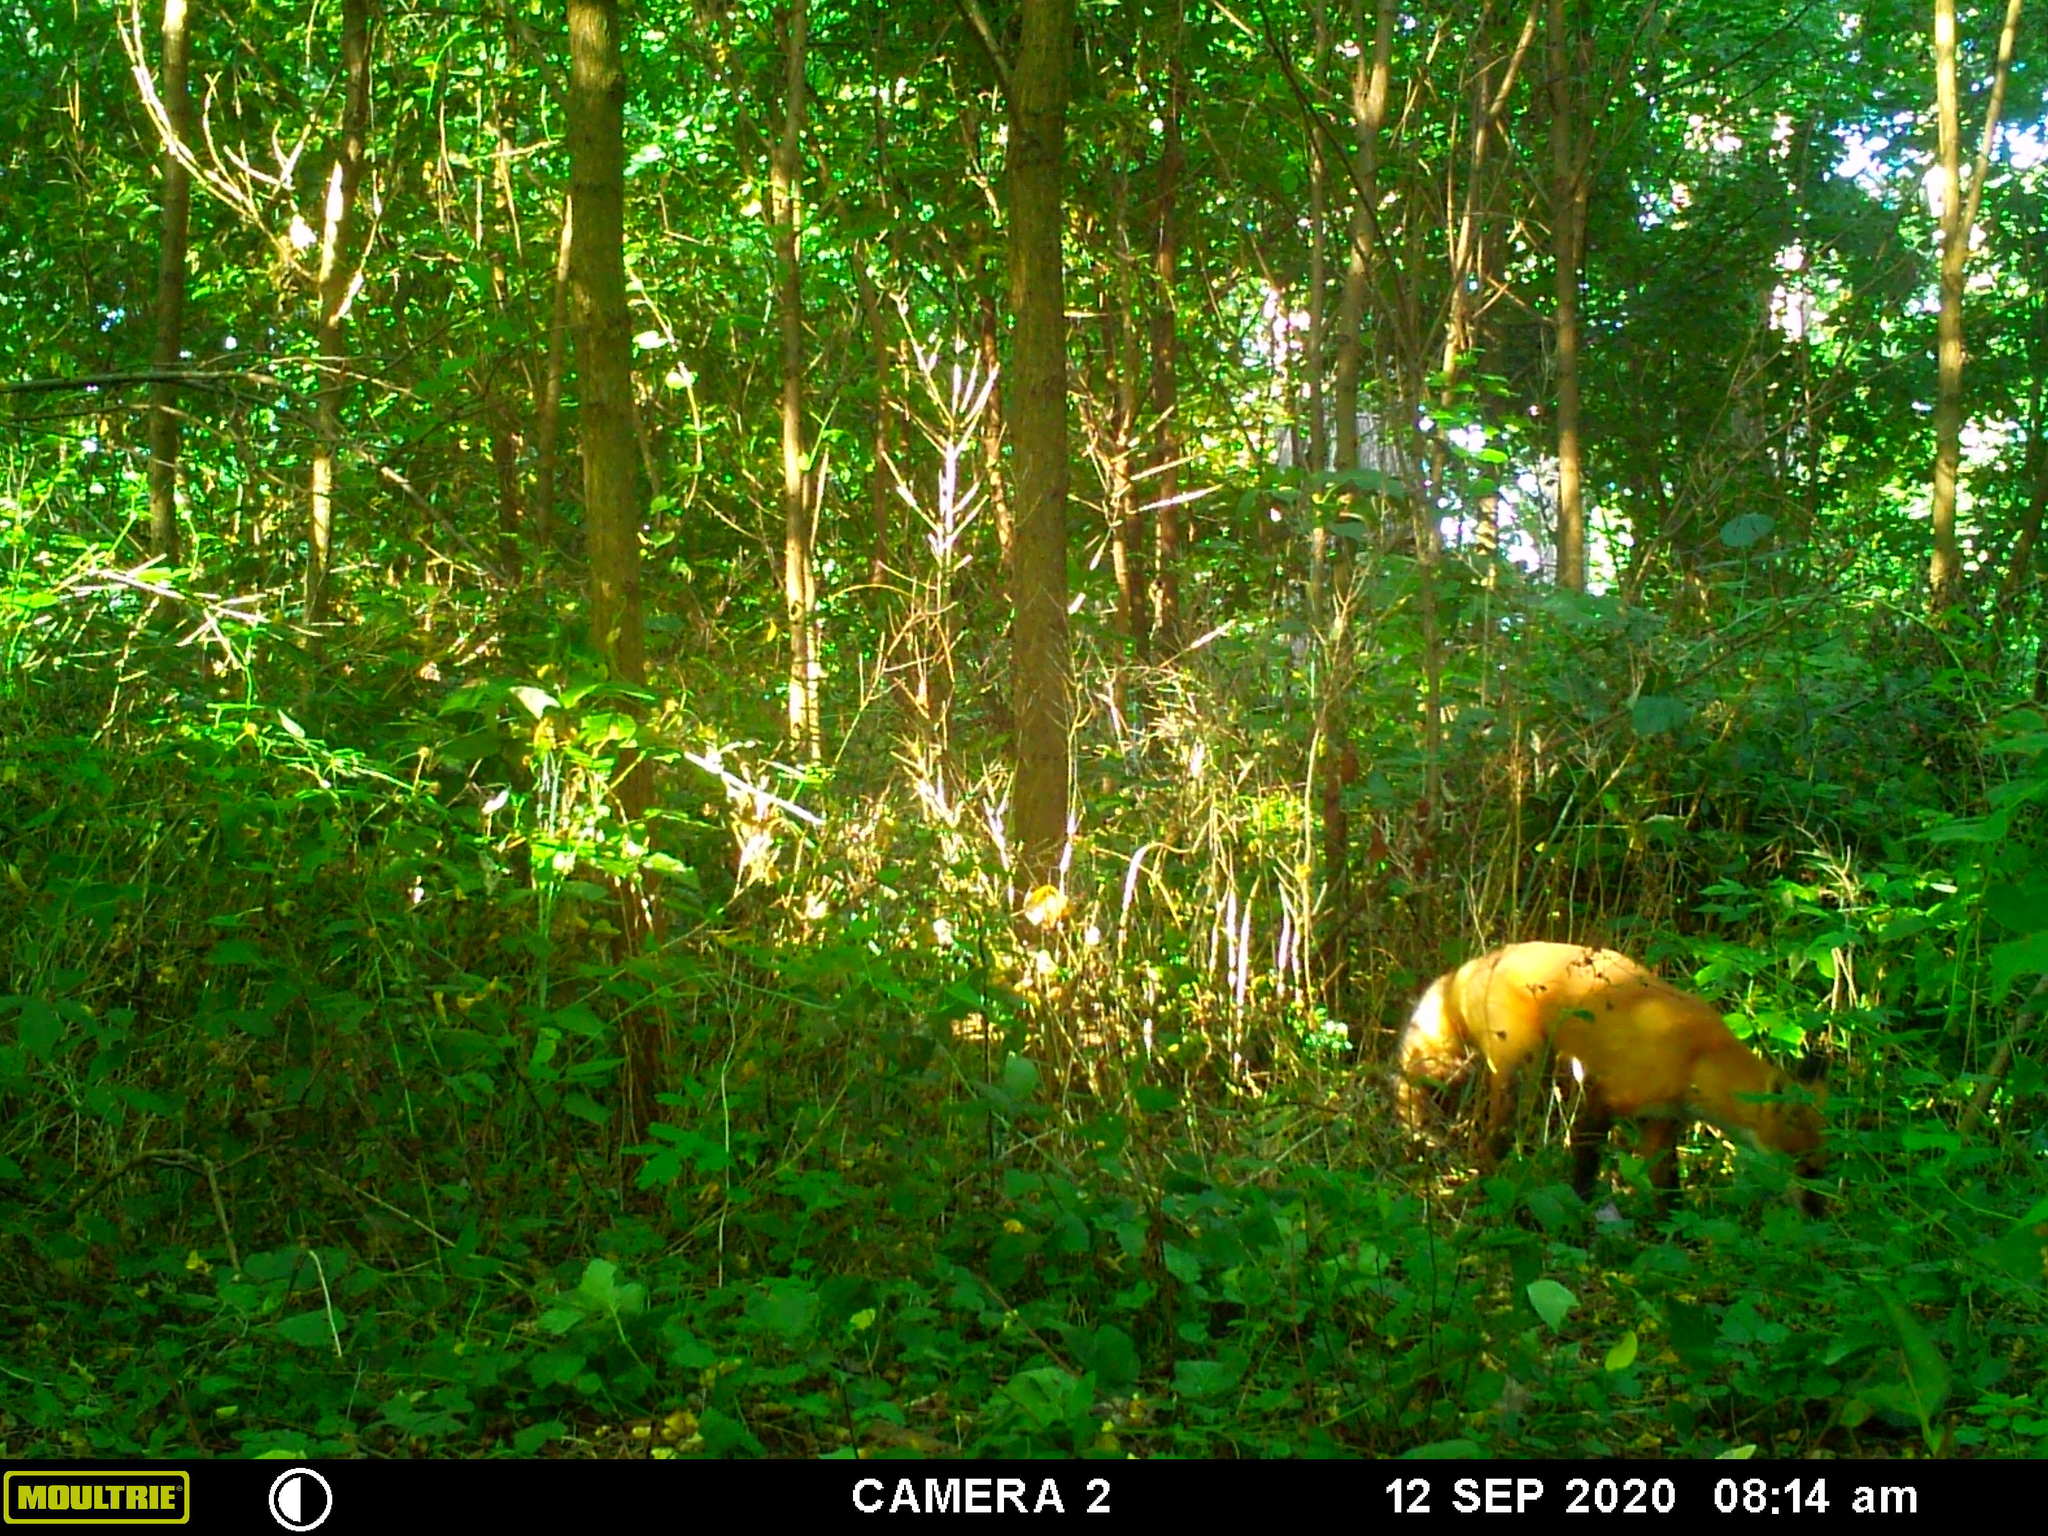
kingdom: Animalia
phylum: Chordata
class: Mammalia
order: Carnivora
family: Canidae
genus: Vulpes
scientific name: Vulpes vulpes
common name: Red fox
